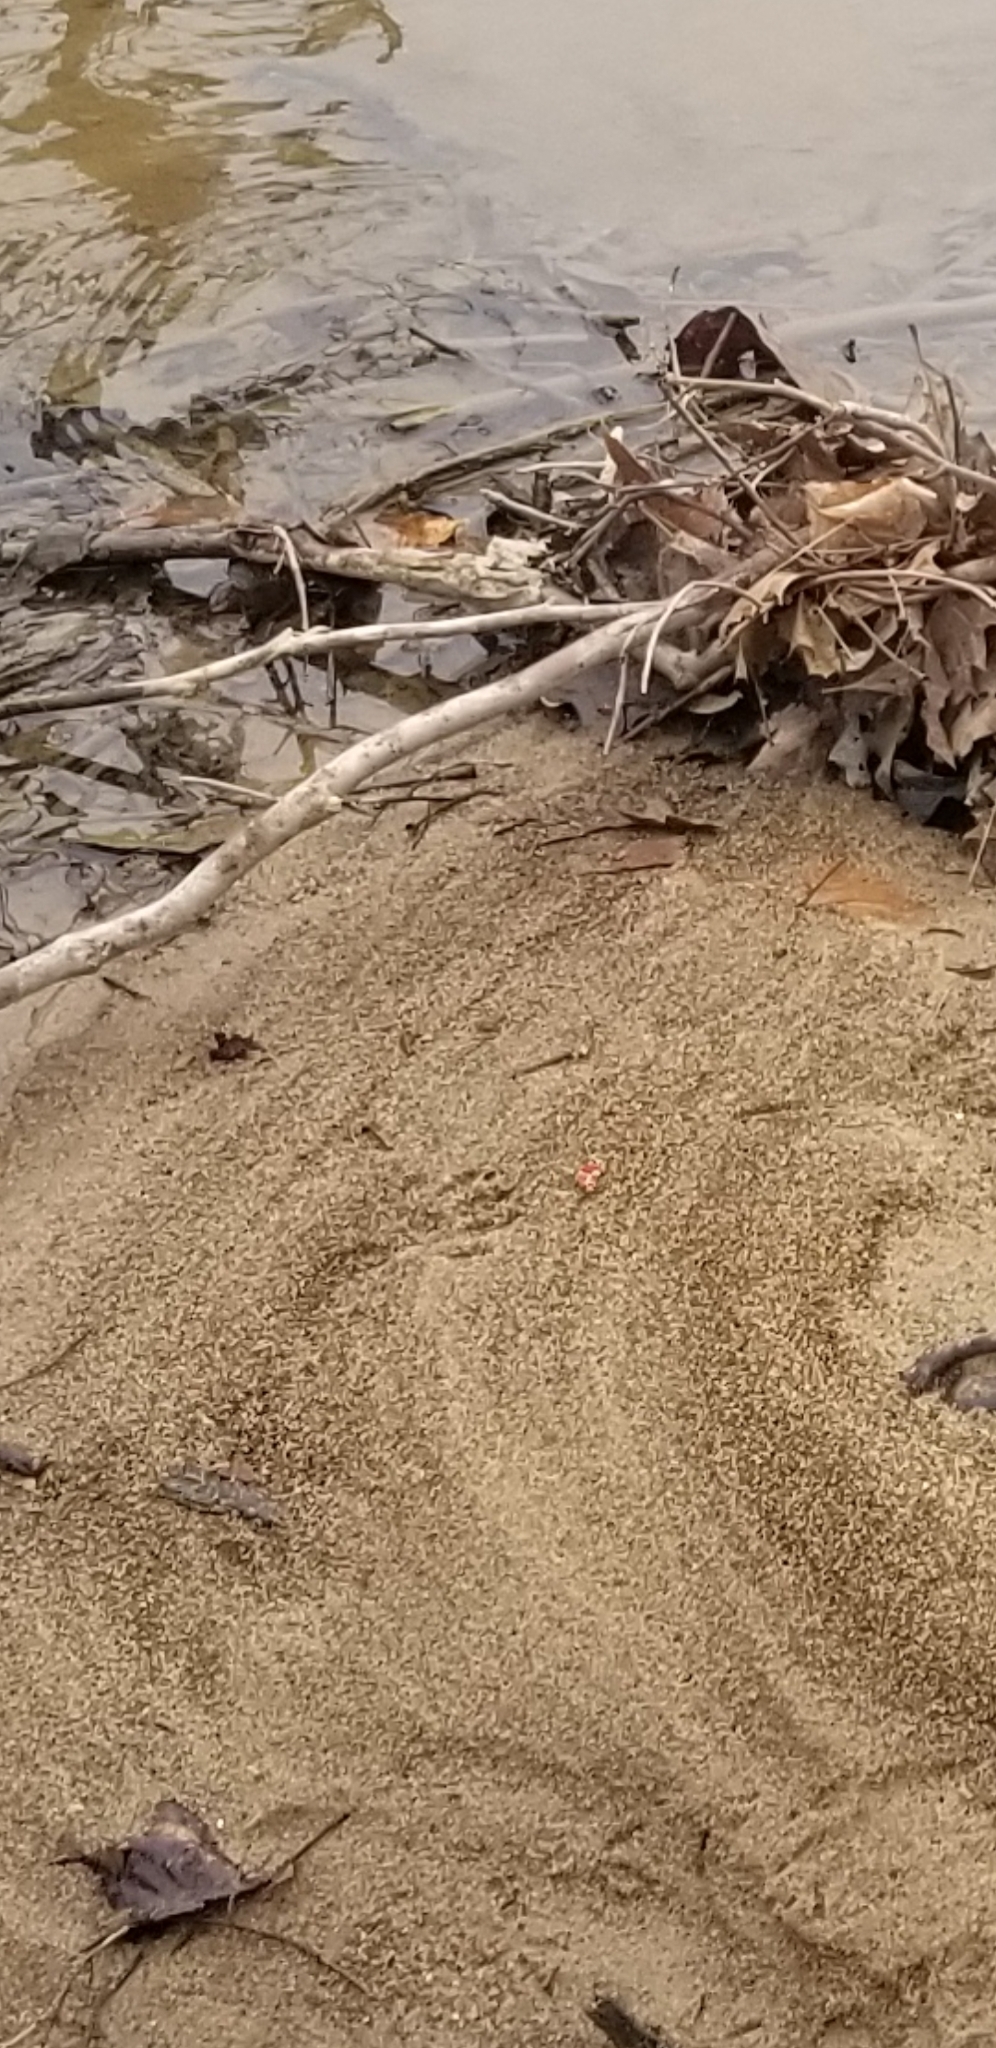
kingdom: Animalia
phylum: Chordata
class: Mammalia
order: Carnivora
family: Procyonidae
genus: Procyon
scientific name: Procyon lotor
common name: Raccoon
